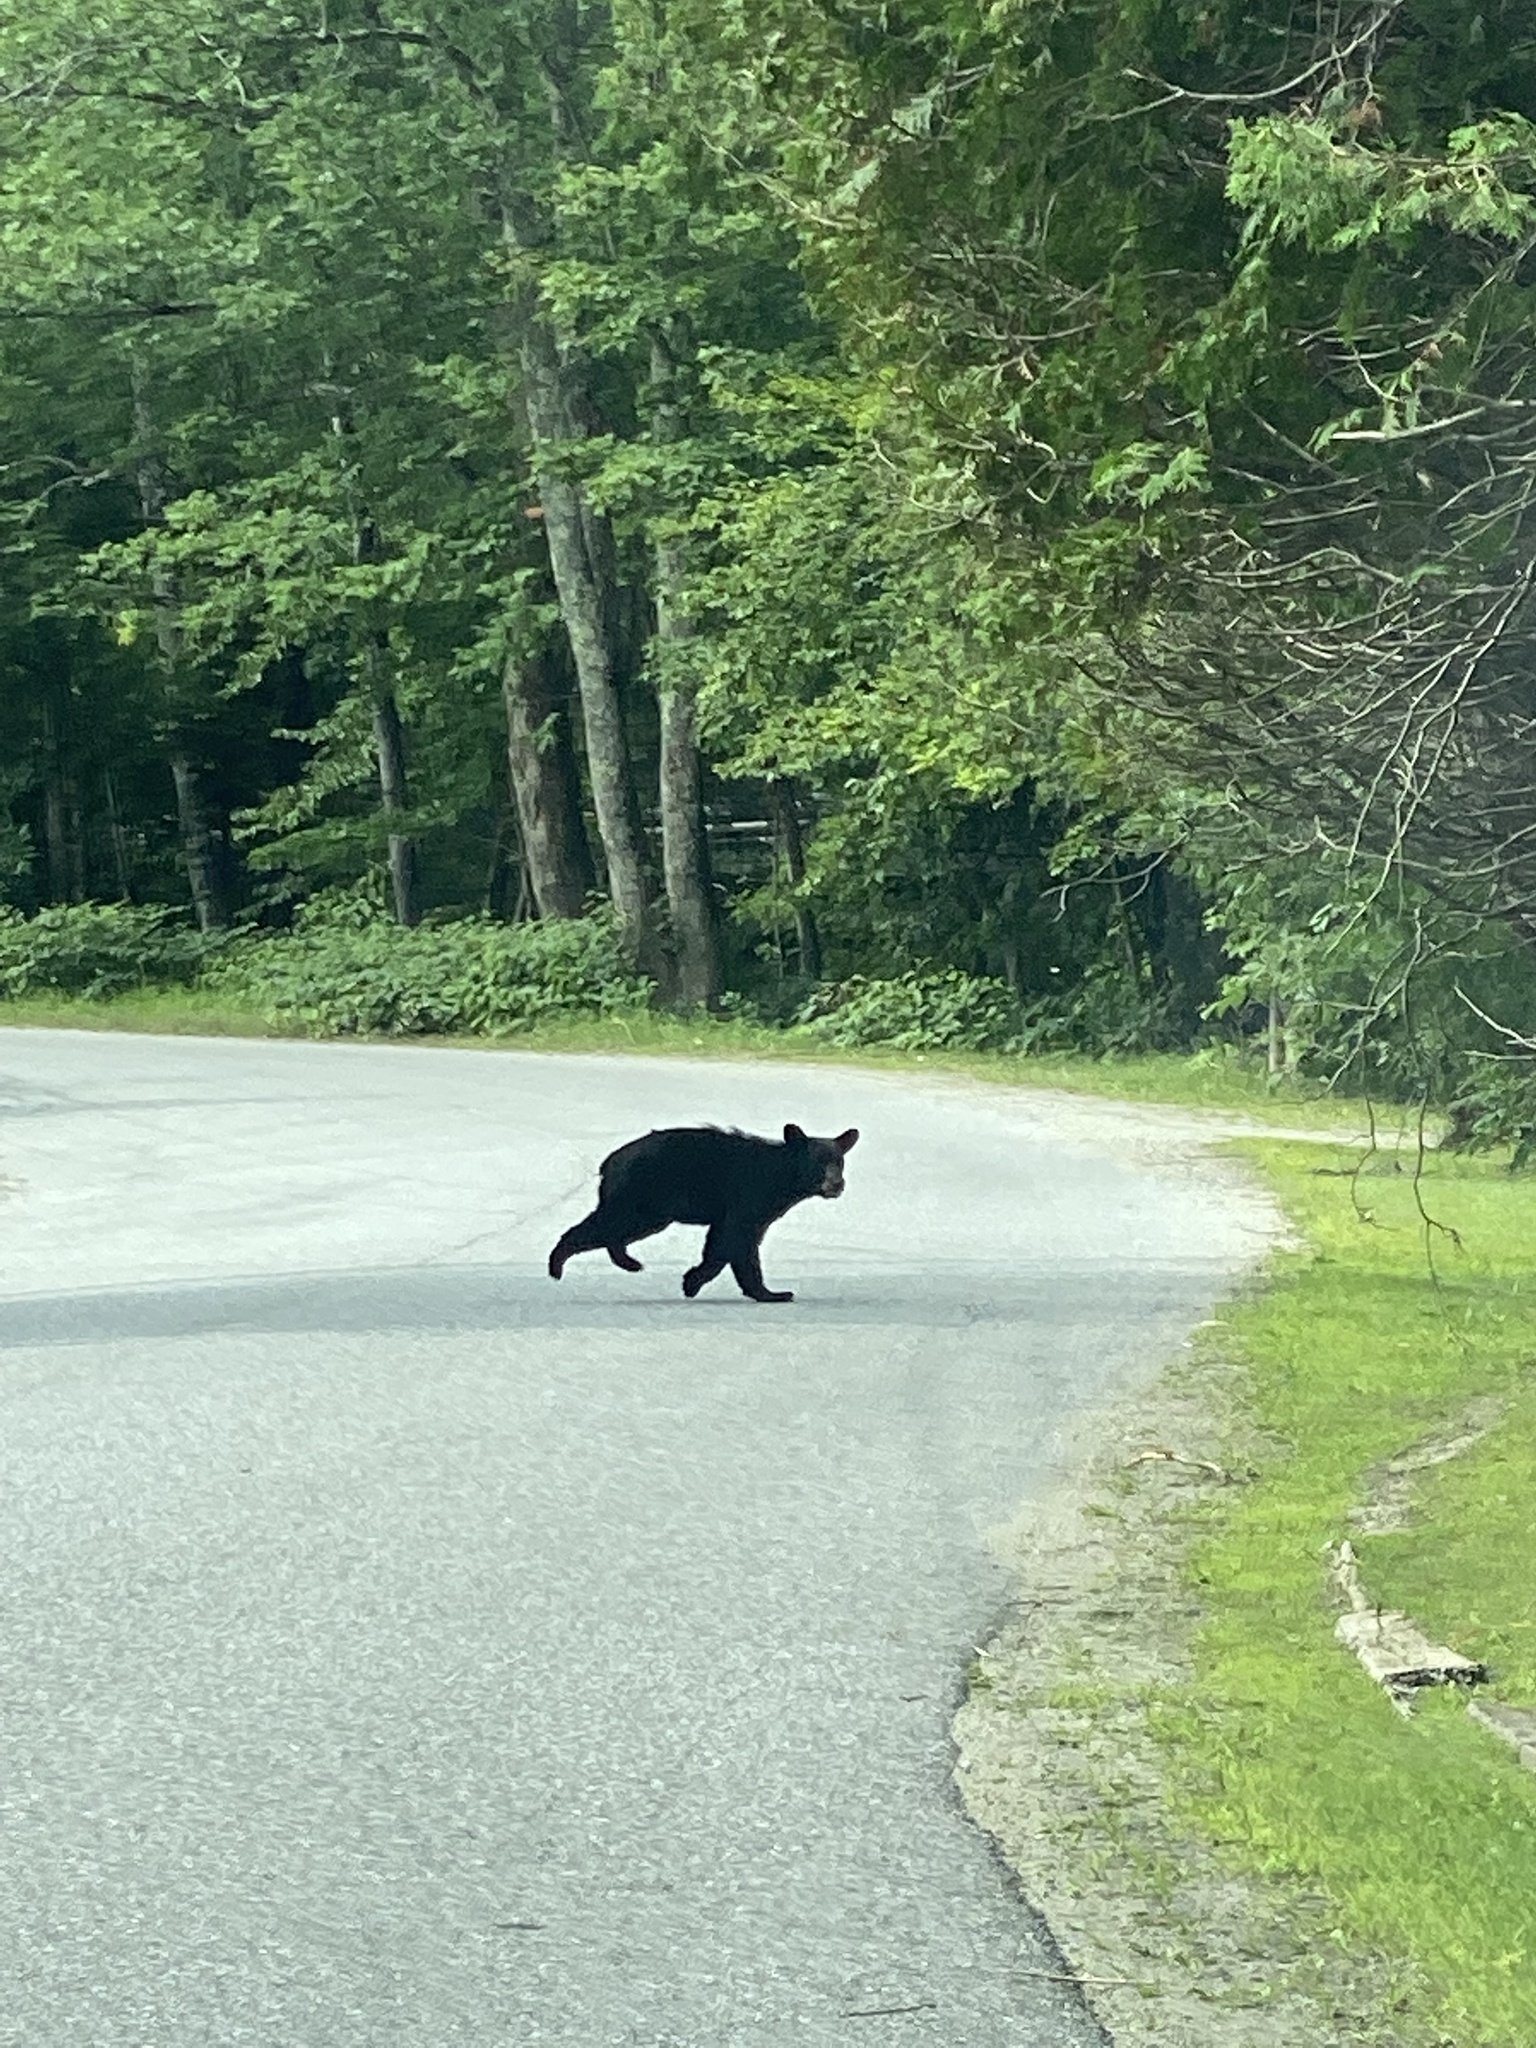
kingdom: Animalia
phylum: Chordata
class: Mammalia
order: Carnivora
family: Ursidae
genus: Ursus
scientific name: Ursus americanus
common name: American black bear
